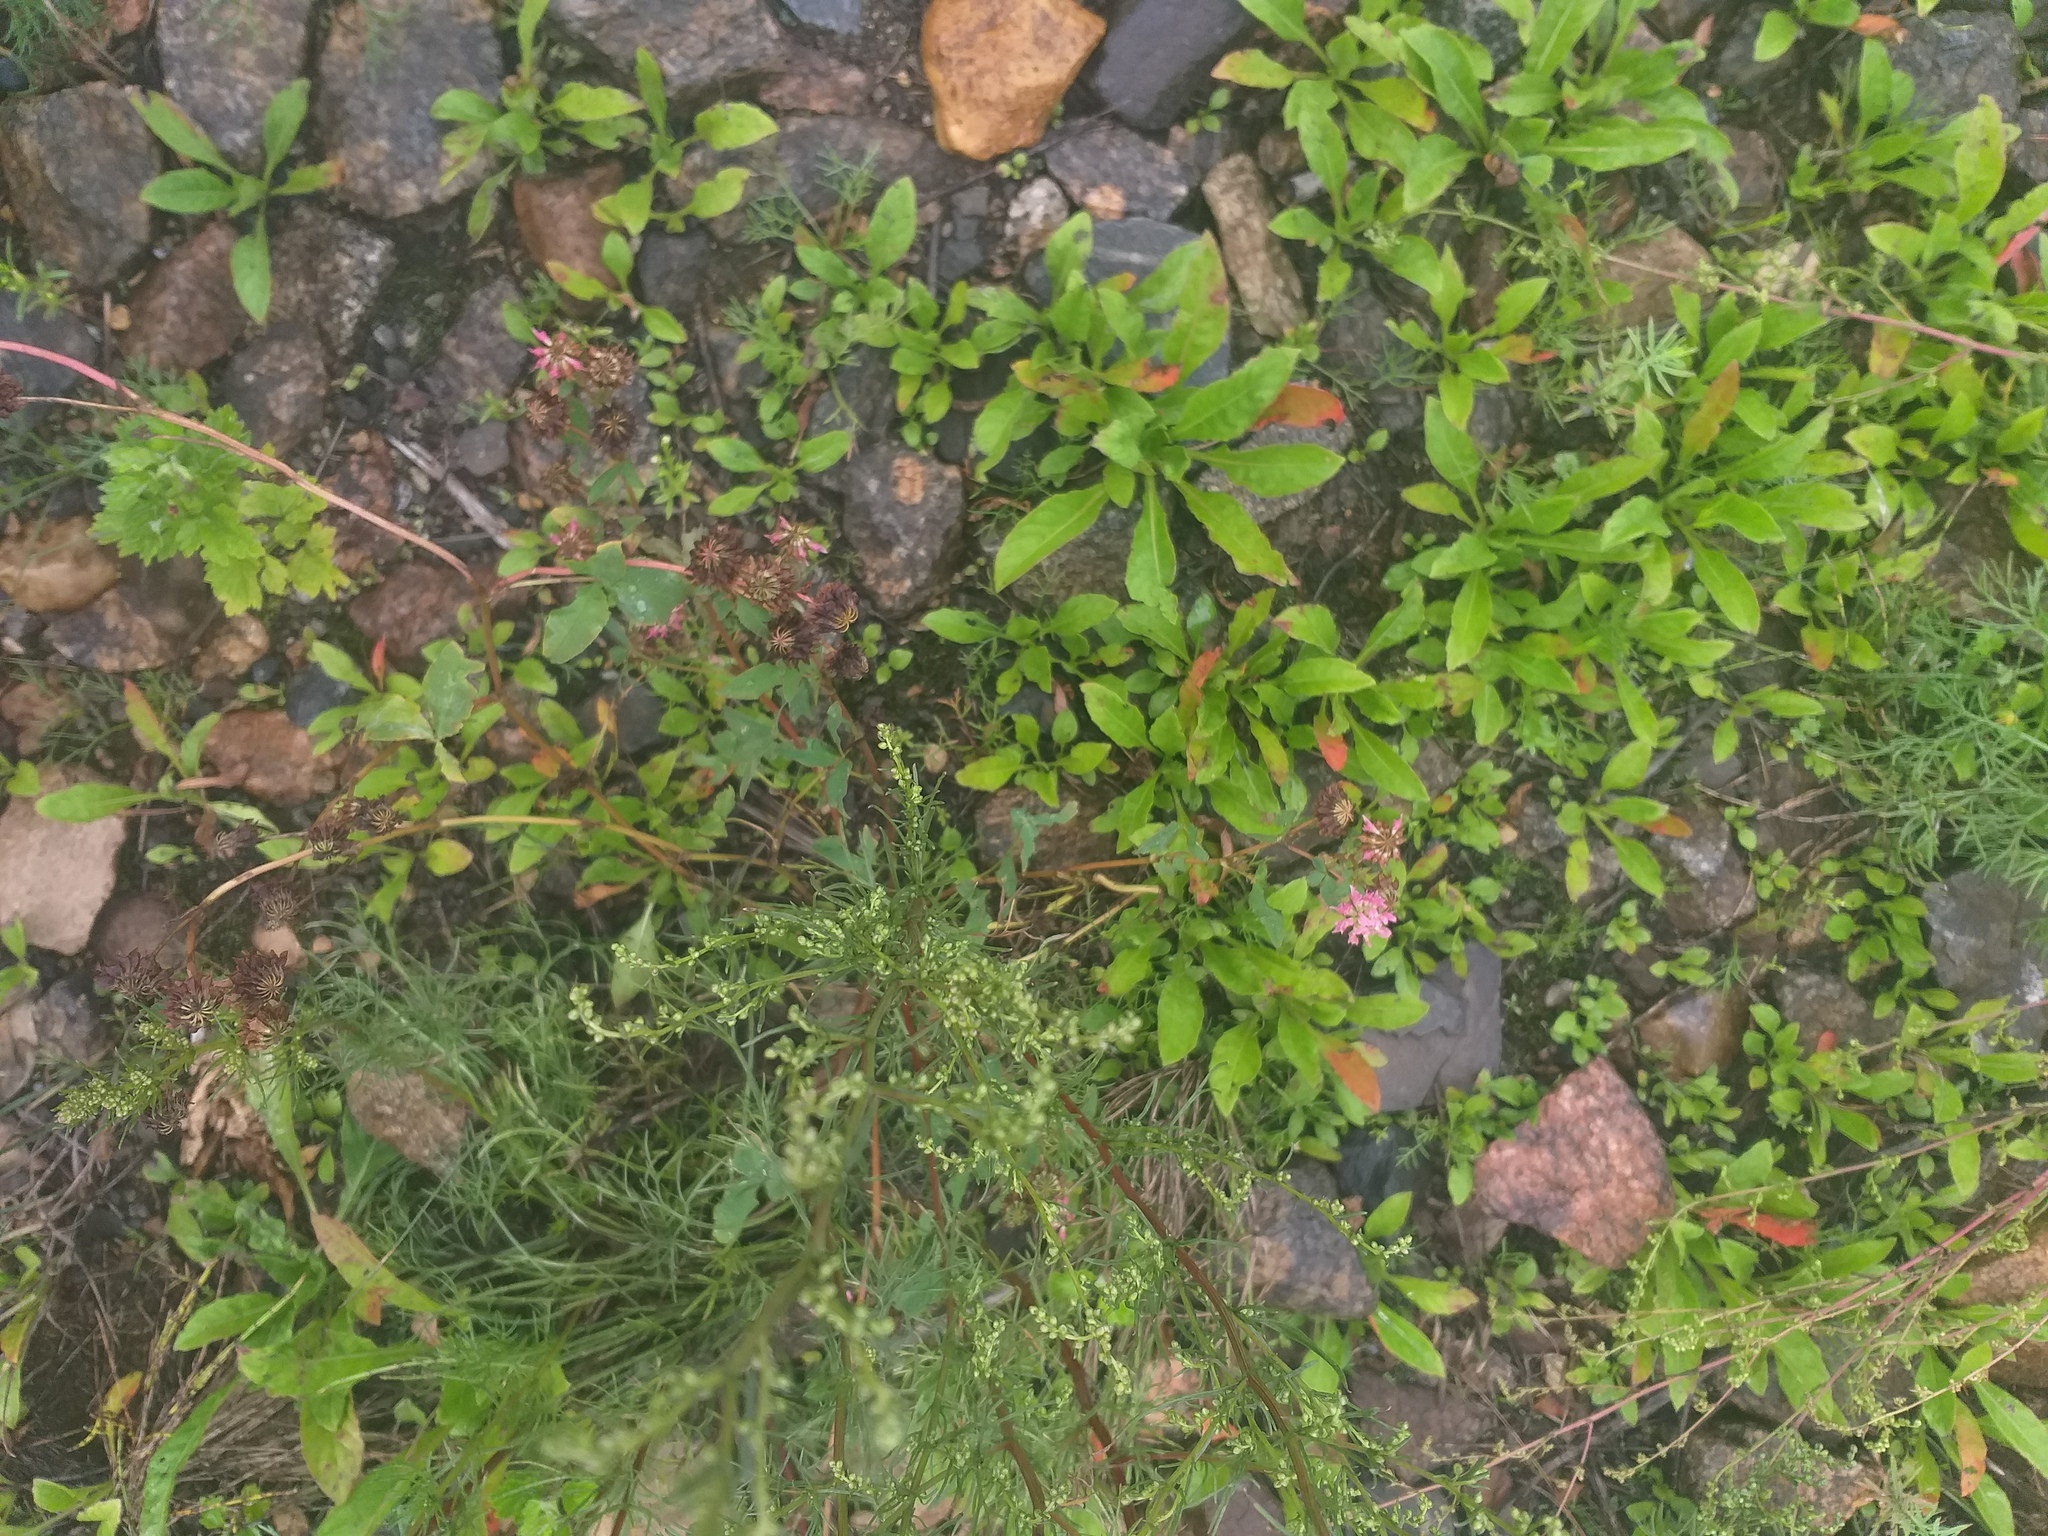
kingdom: Plantae
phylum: Tracheophyta
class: Magnoliopsida
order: Fabales
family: Fabaceae
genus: Trifolium
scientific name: Trifolium hybridum
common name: Alsike clover
